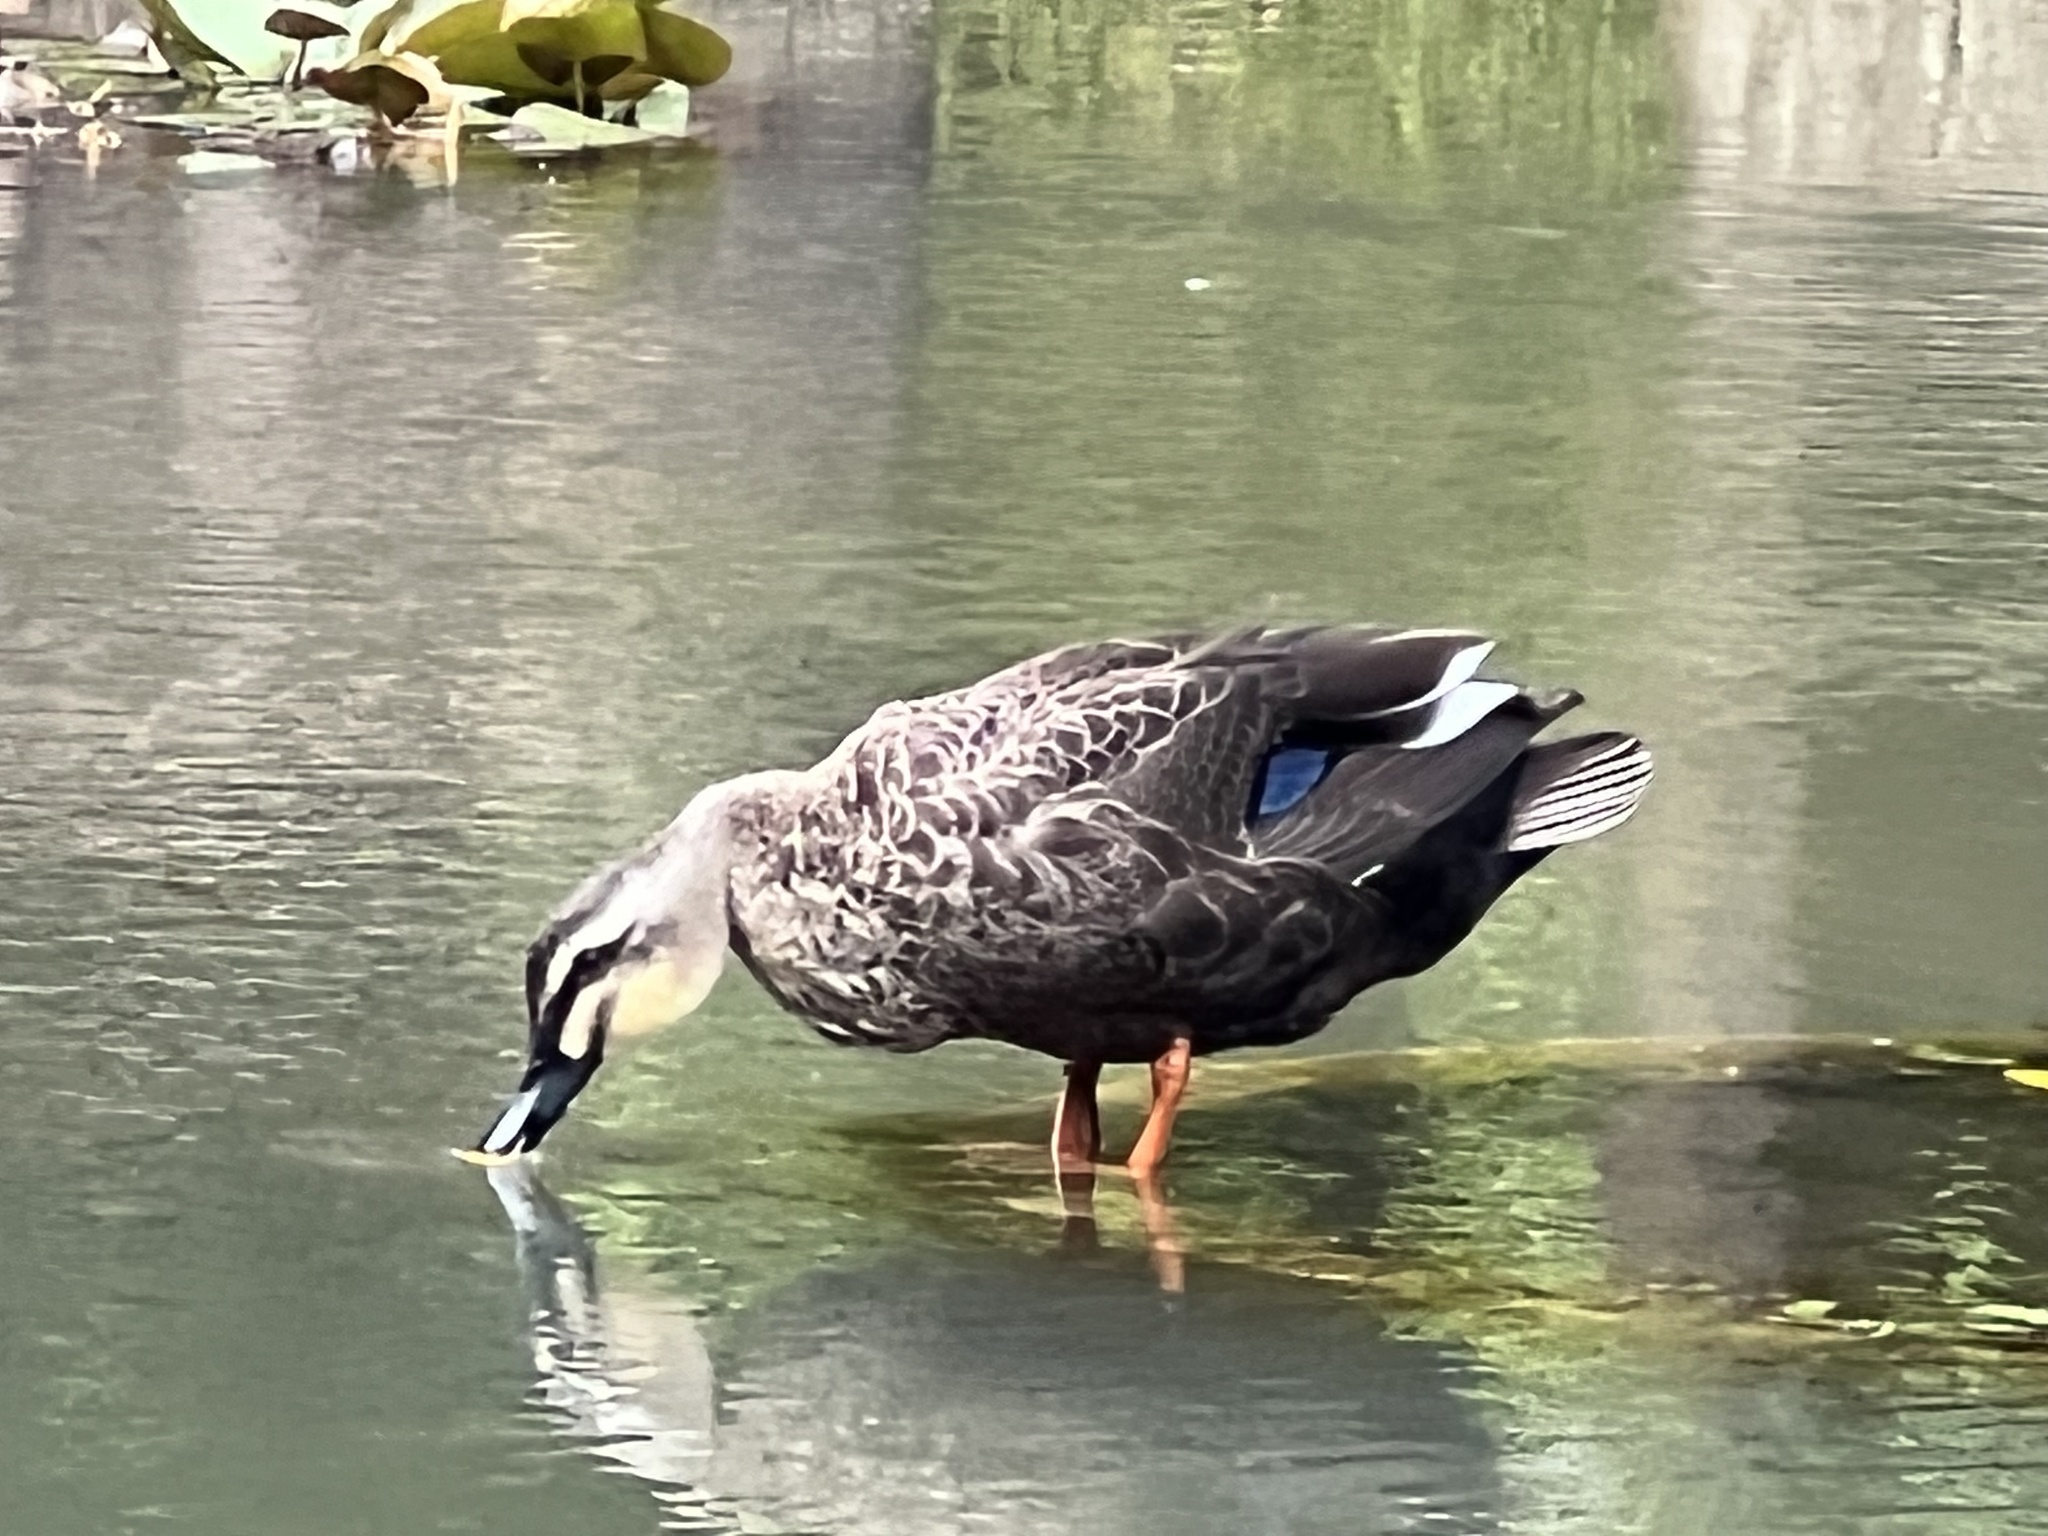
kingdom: Animalia
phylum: Chordata
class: Aves
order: Anseriformes
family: Anatidae
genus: Anas
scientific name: Anas zonorhyncha
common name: Eastern spot-billed duck
